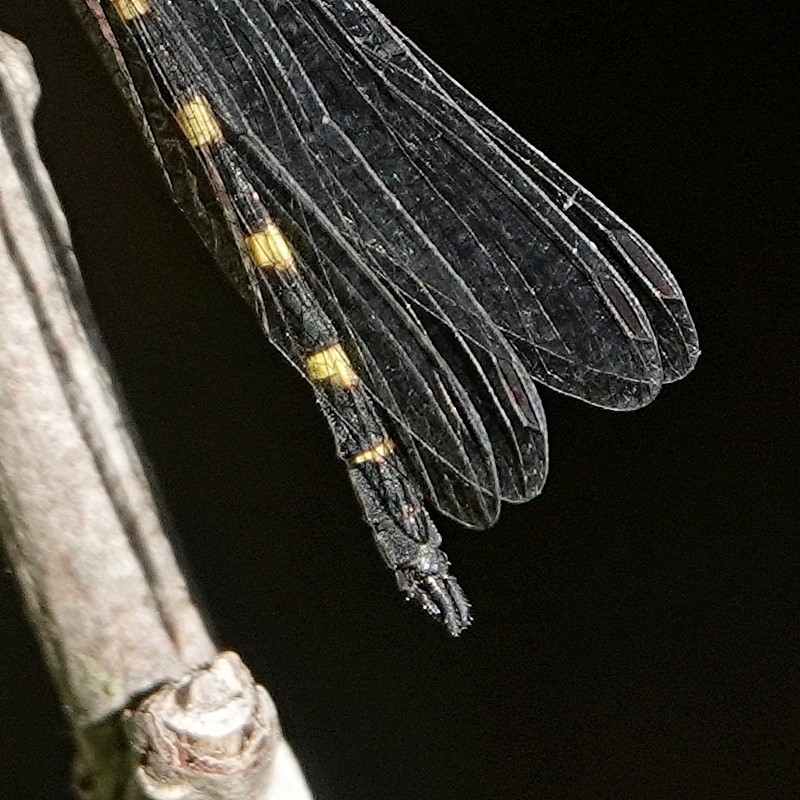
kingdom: Animalia
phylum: Arthropoda
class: Insecta
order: Odonata
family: Corduliidae
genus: Cordulephya
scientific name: Cordulephya pygmaea
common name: Common shutwing
